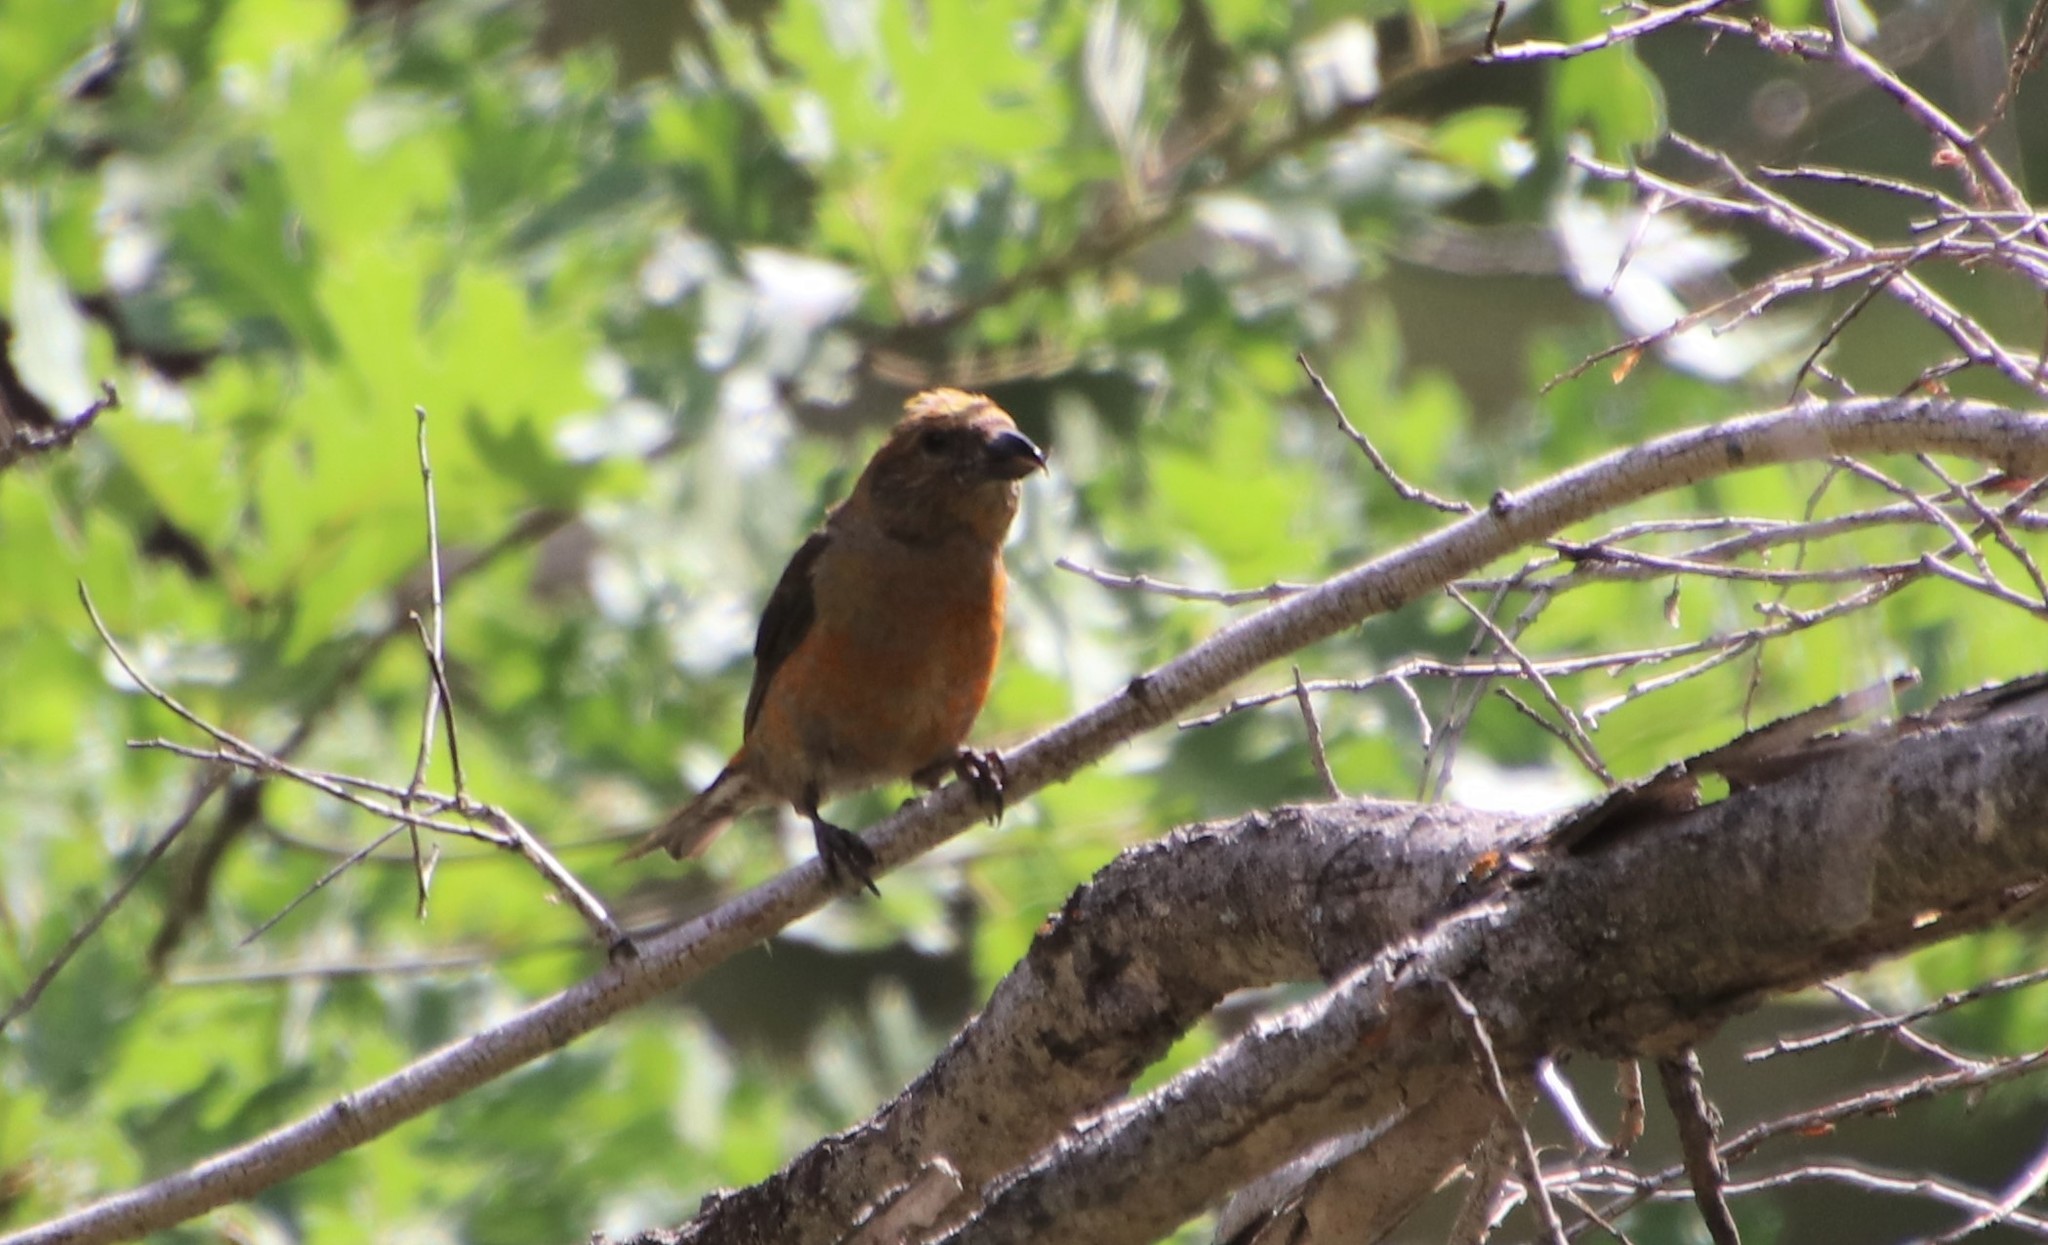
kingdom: Animalia
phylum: Chordata
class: Aves
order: Passeriformes
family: Fringillidae
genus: Loxia
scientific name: Loxia curvirostra
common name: Red crossbill
